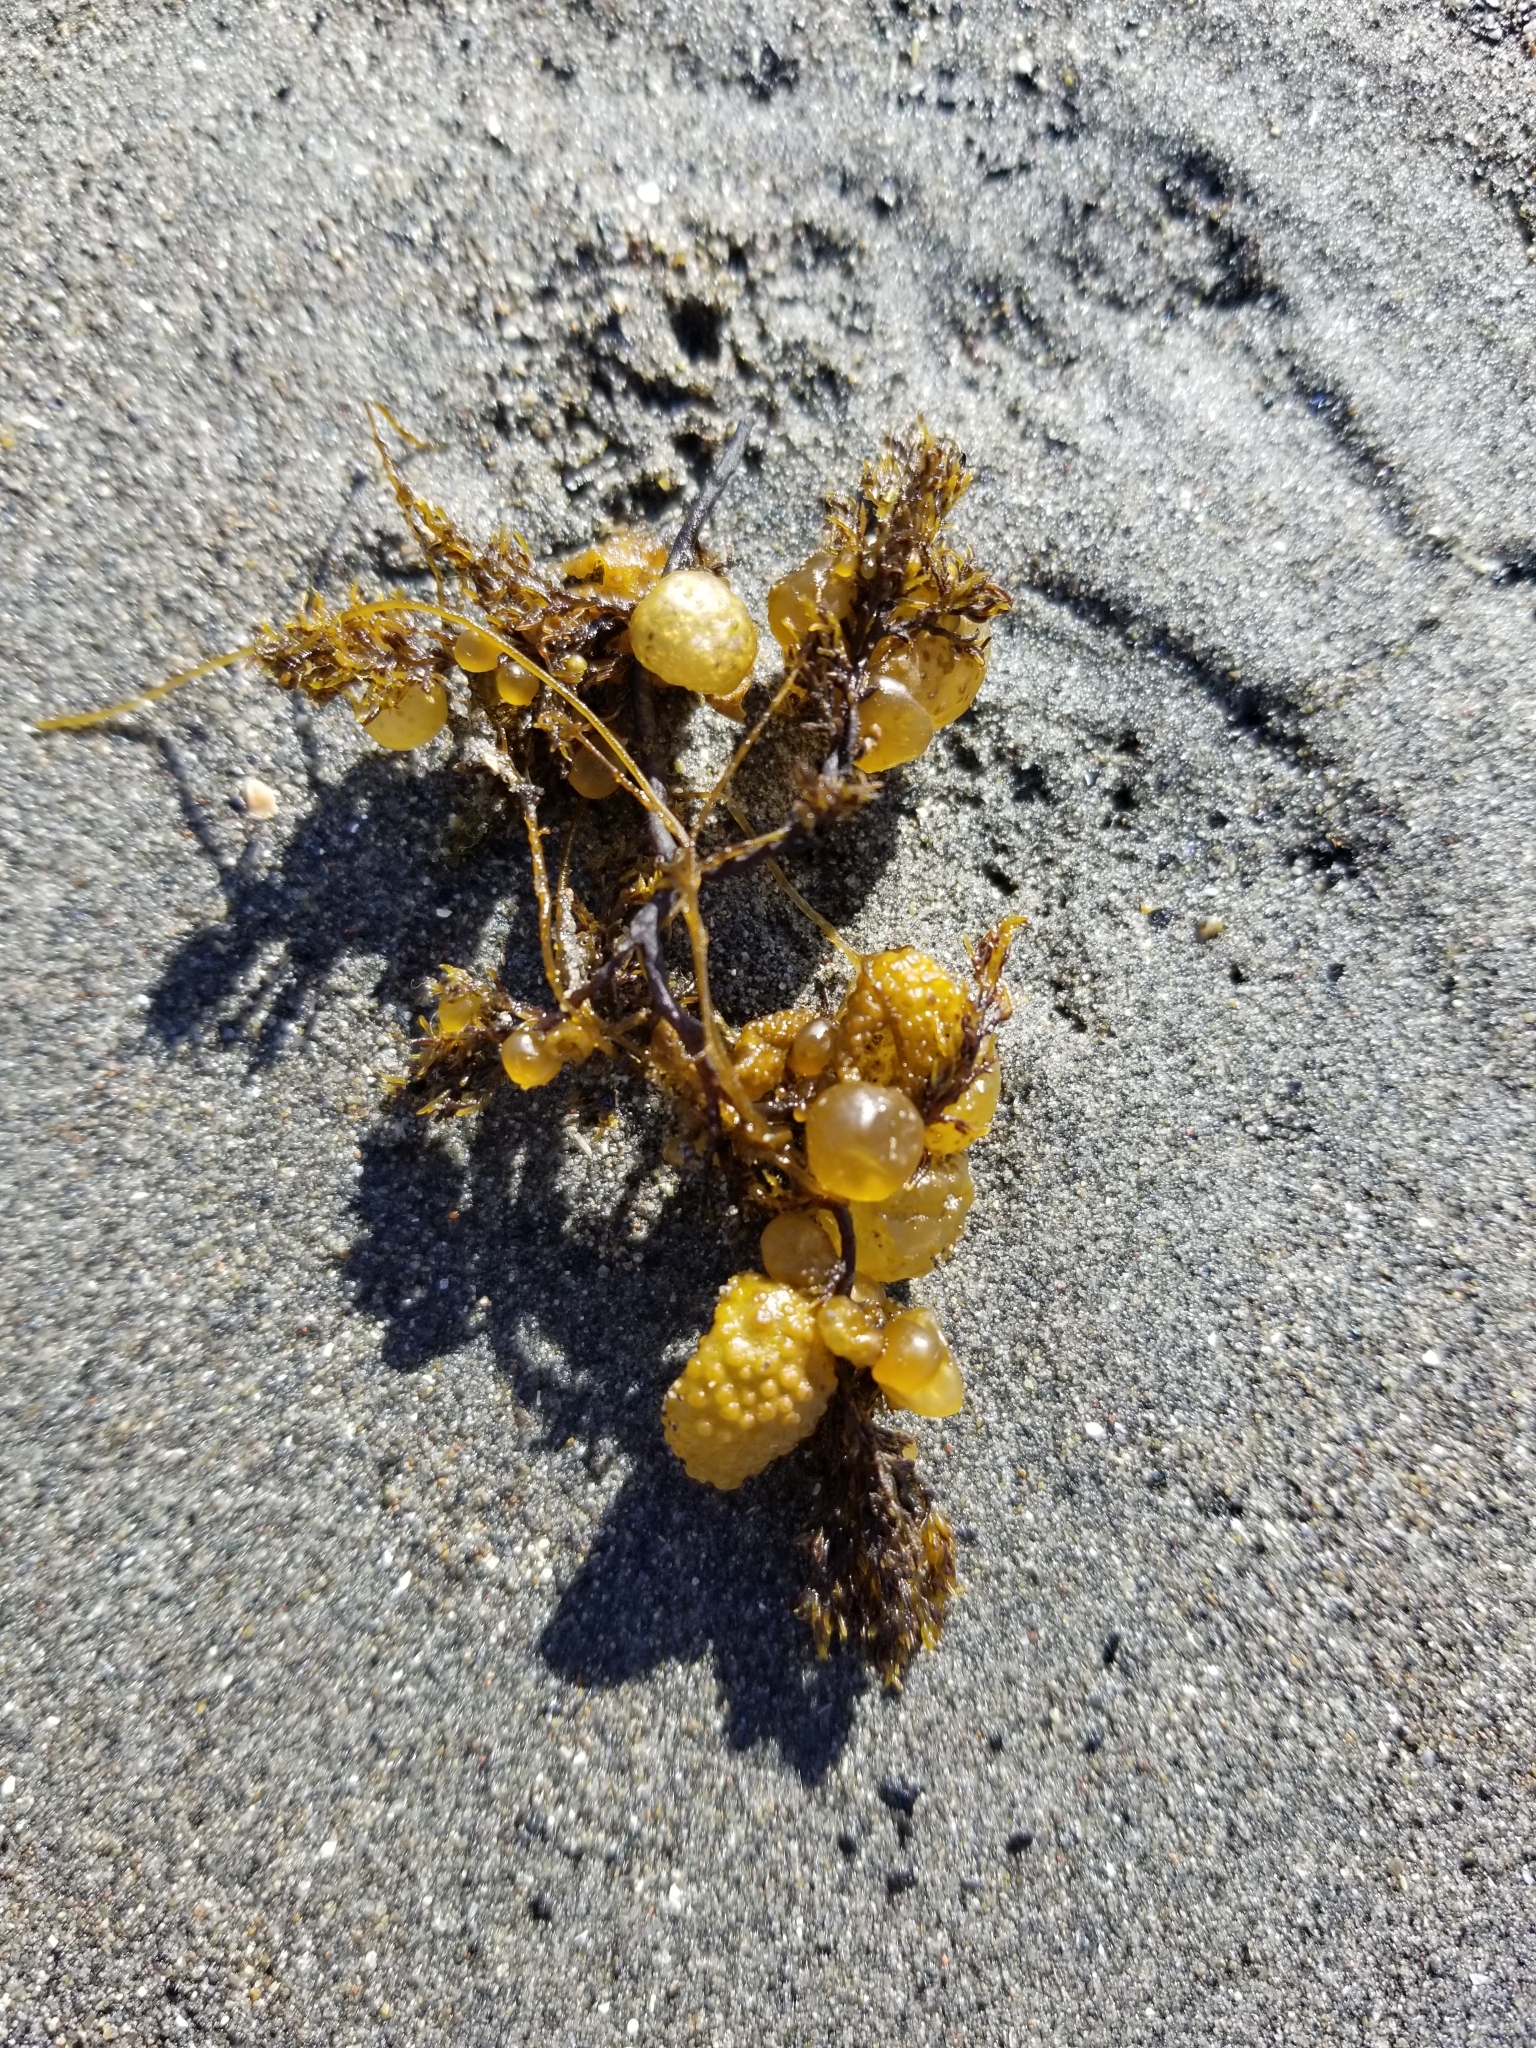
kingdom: Chromista
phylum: Ochrophyta
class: Phaeophyceae
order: Dictyosiphonales
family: Punctariaceae
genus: Soranthera
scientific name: Soranthera ulvoidea
